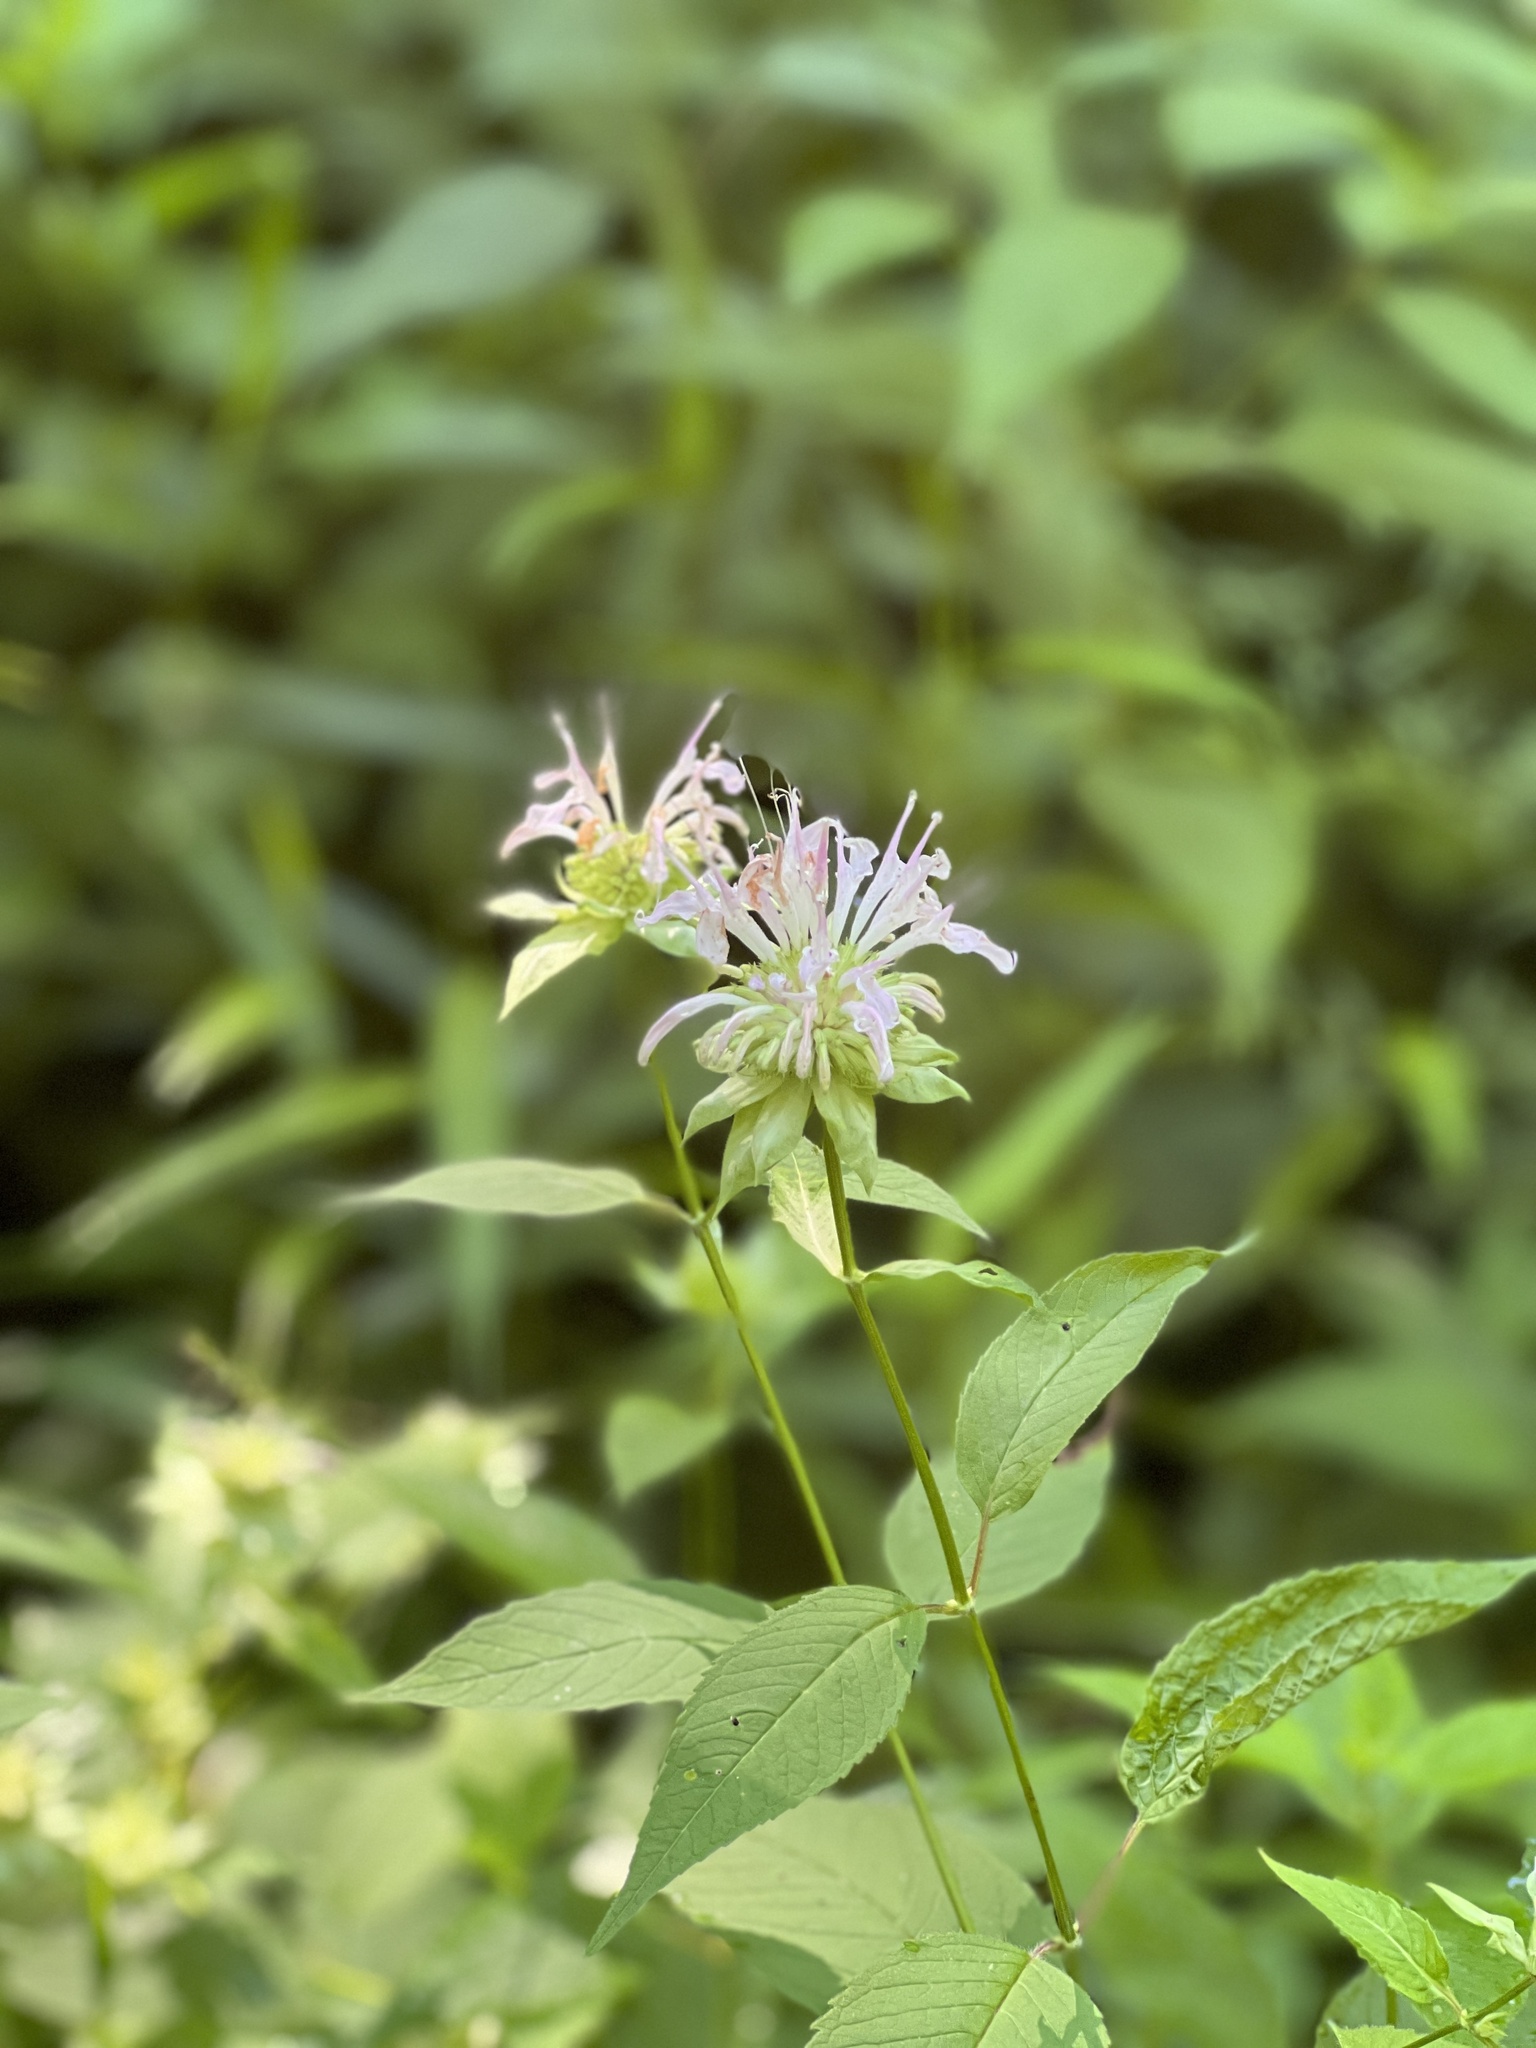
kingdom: Plantae
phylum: Tracheophyta
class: Magnoliopsida
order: Lamiales
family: Lamiaceae
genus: Monarda
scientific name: Monarda clinopodia
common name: Basil beebalm
